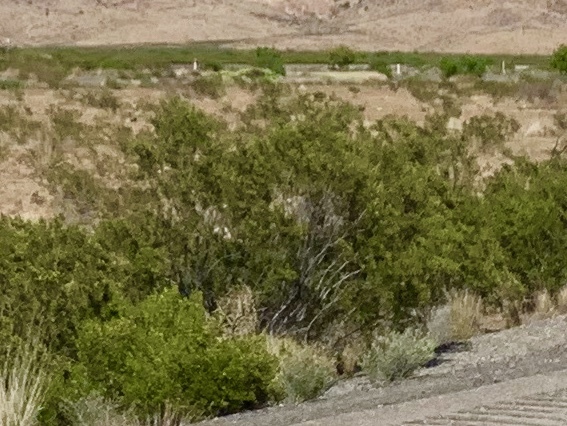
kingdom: Plantae
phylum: Tracheophyta
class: Magnoliopsida
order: Zygophyllales
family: Zygophyllaceae
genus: Larrea
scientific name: Larrea tridentata
